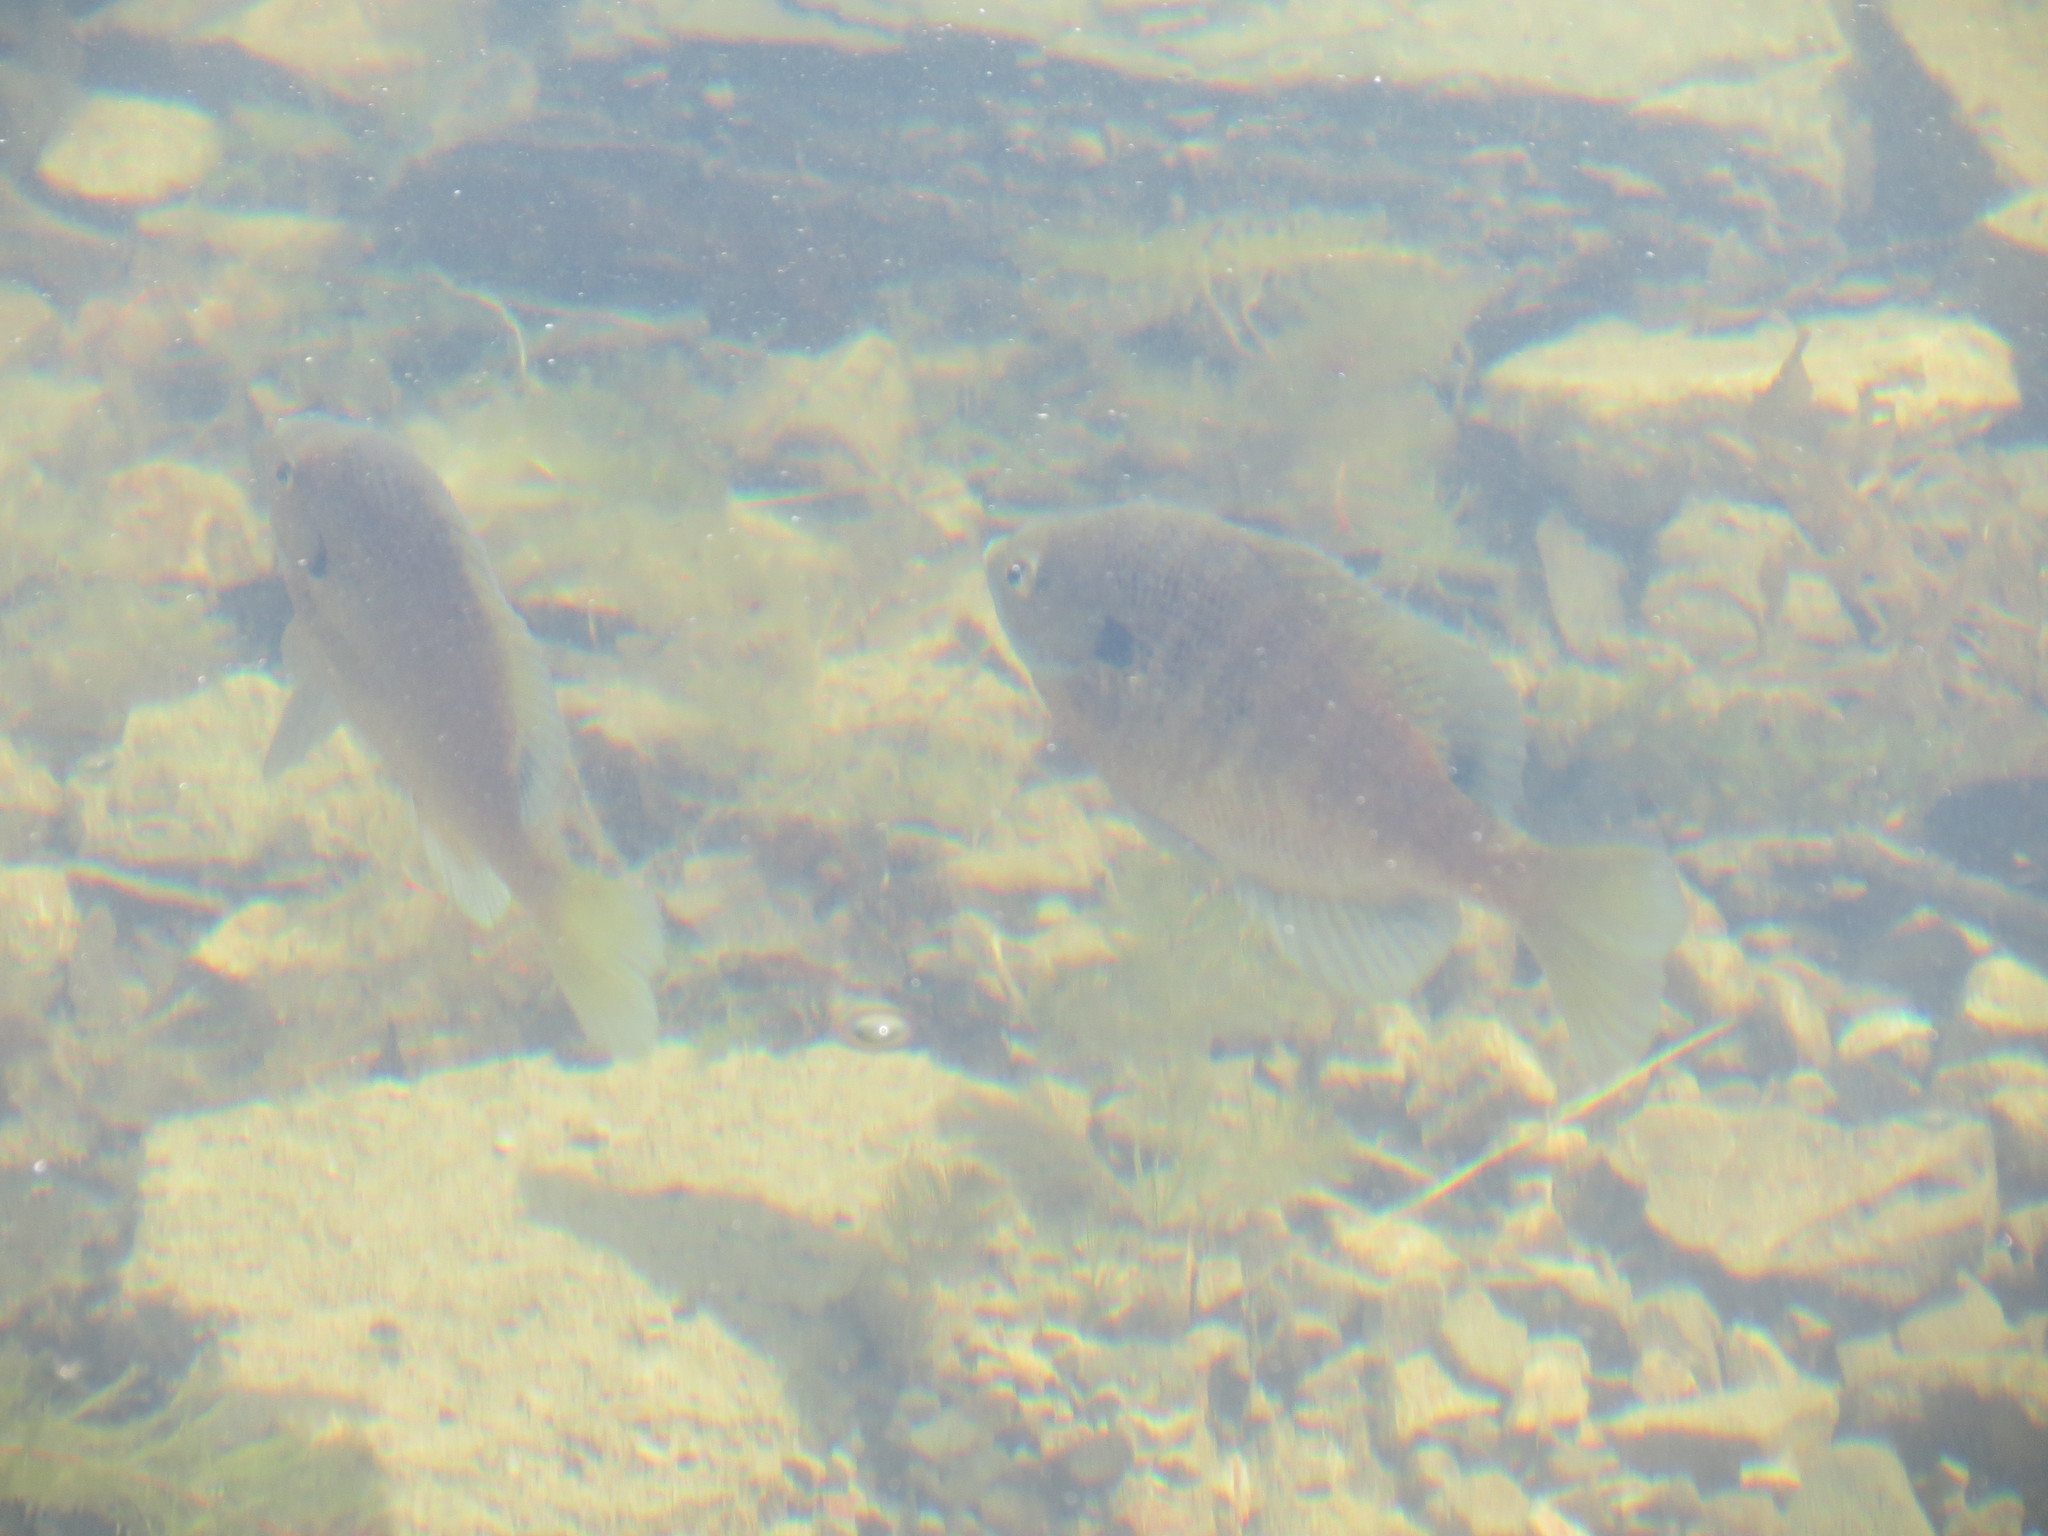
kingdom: Animalia
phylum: Chordata
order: Perciformes
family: Centrarchidae
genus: Lepomis
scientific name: Lepomis macrochirus
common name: Bluegill
